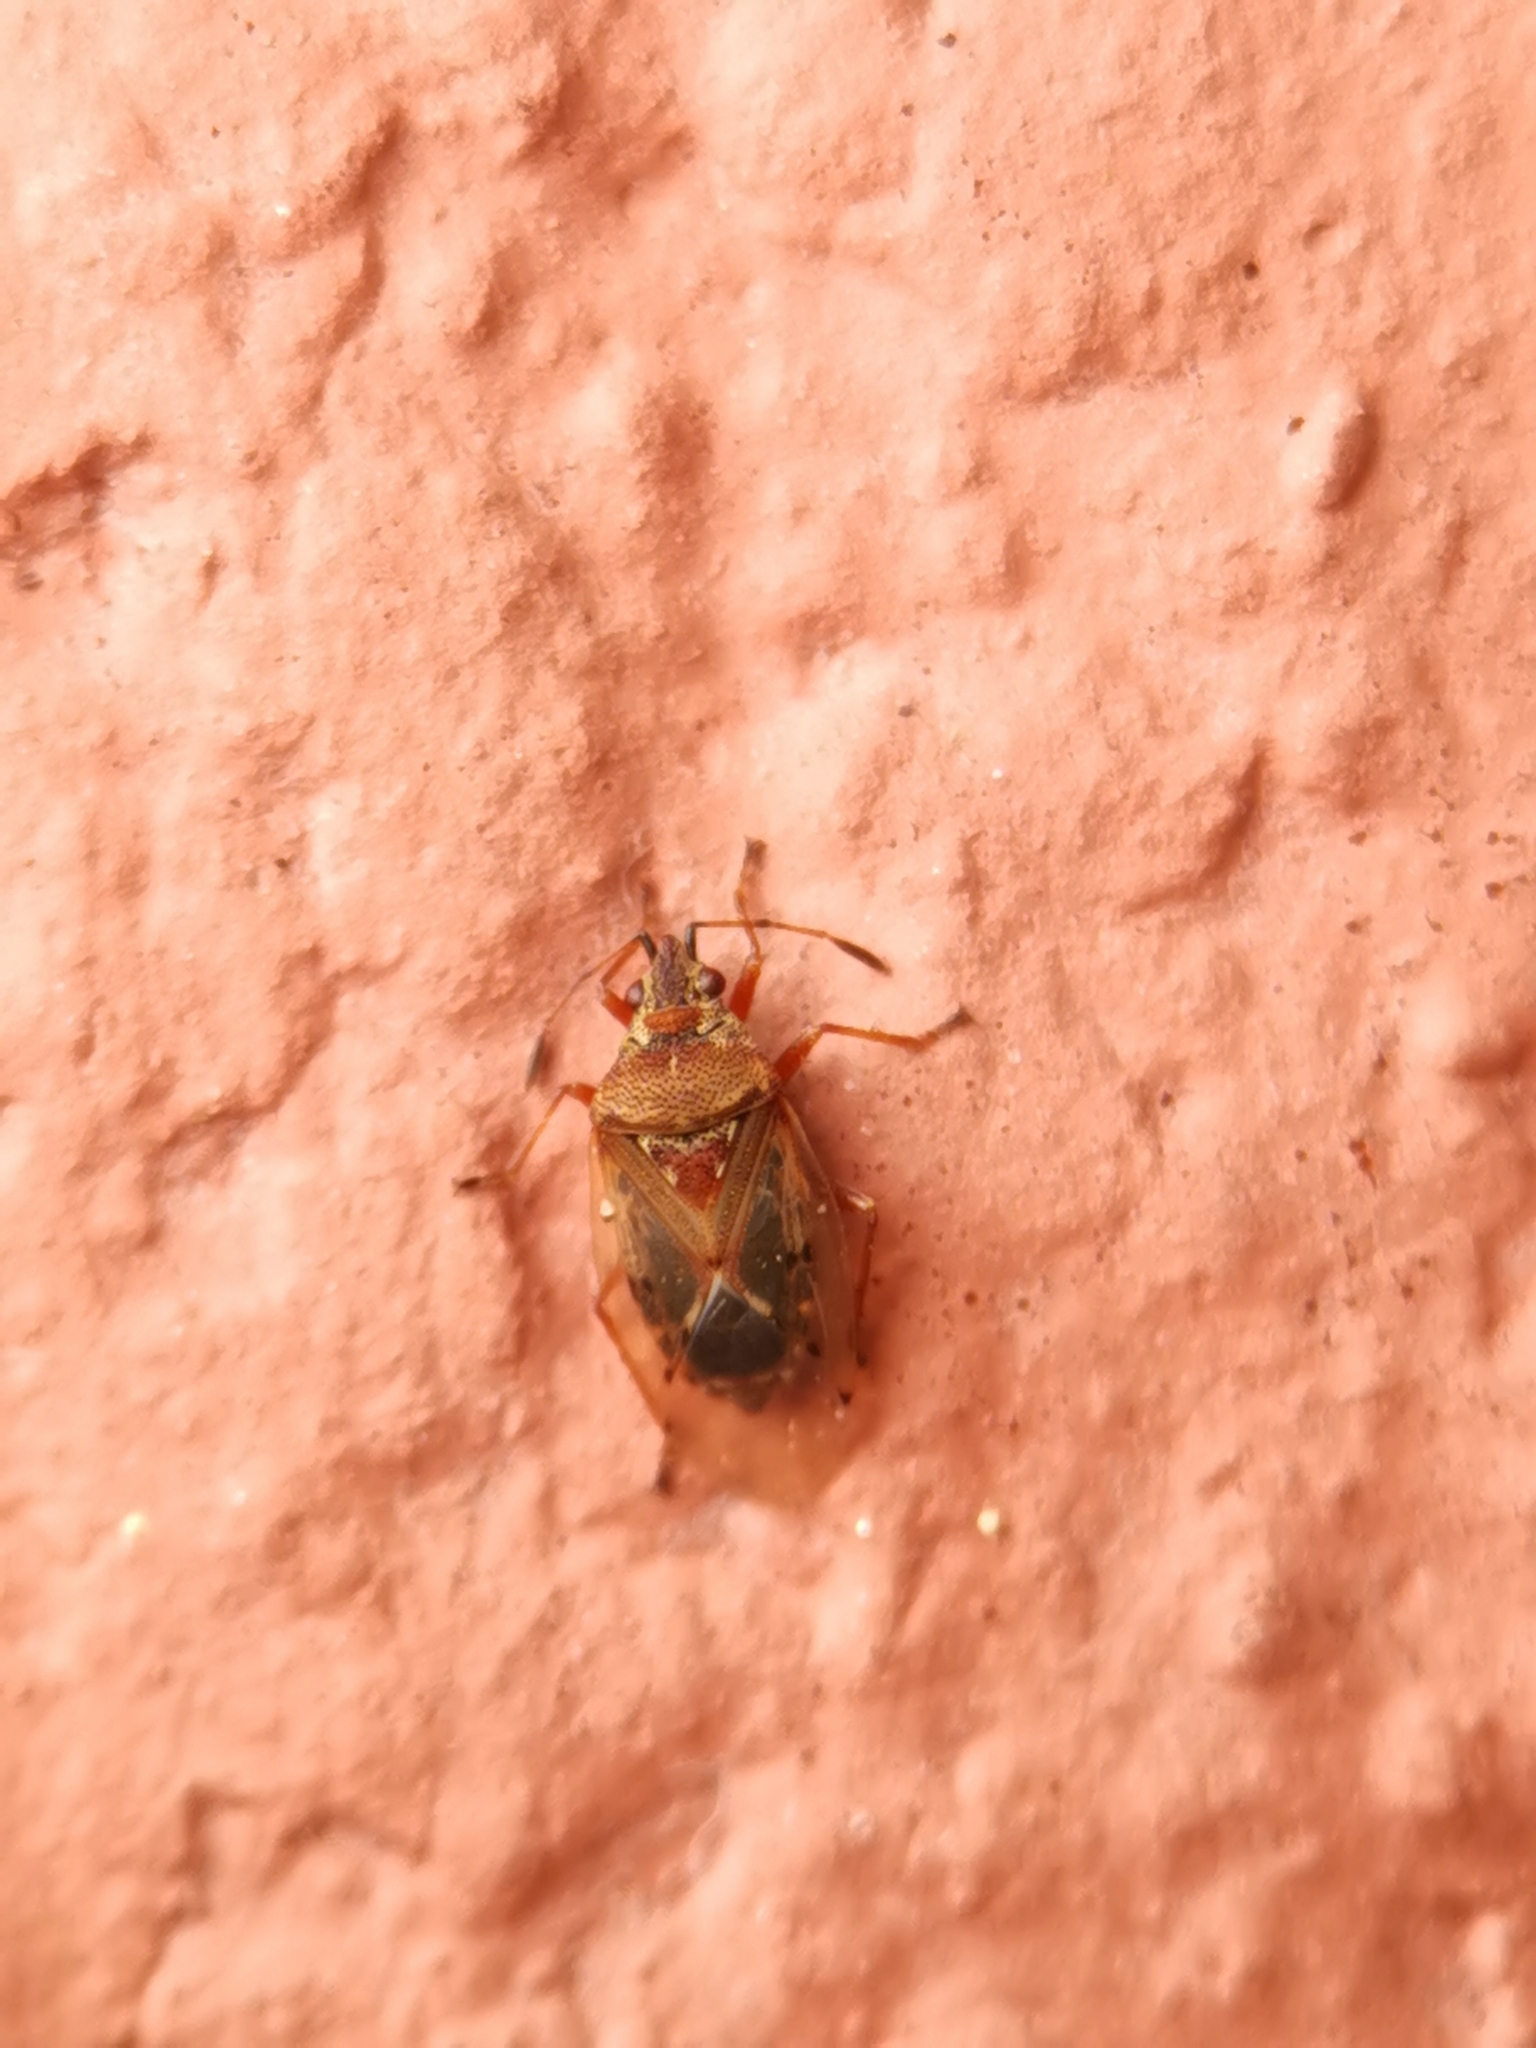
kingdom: Animalia
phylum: Arthropoda
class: Insecta
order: Hemiptera
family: Lygaeidae
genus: Kleidocerys
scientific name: Kleidocerys resedae
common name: Birch catkin bug
